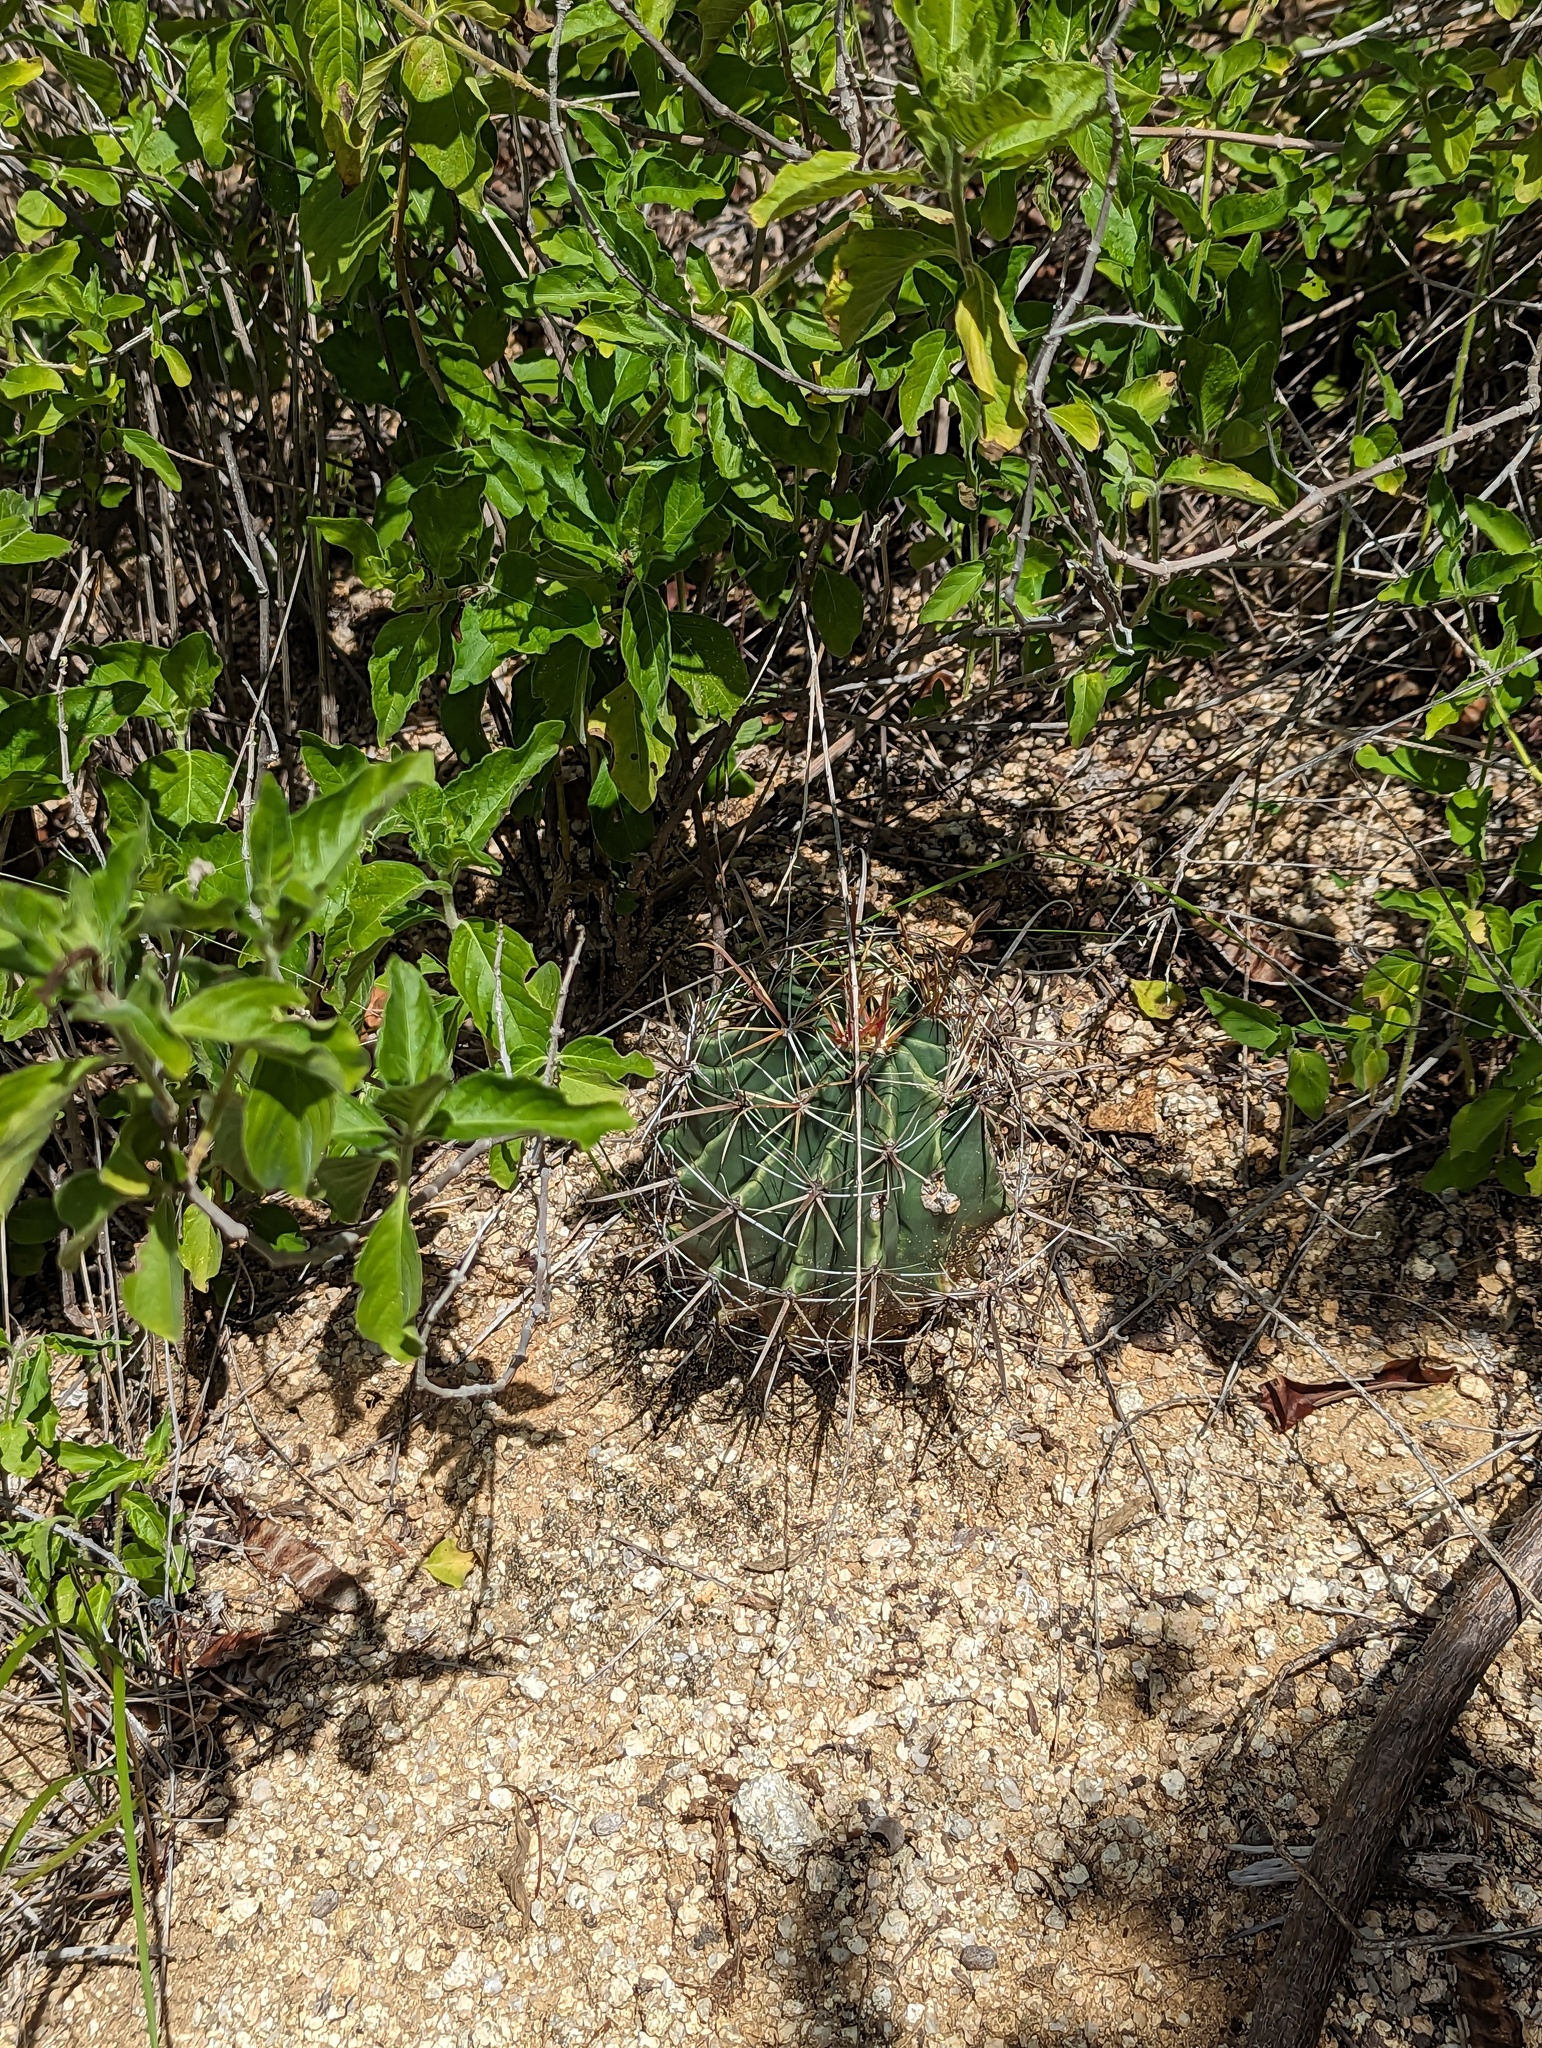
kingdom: Plantae
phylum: Tracheophyta
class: Magnoliopsida
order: Caryophyllales
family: Cactaceae
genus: Ferocactus
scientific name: Ferocactus townsendianus
